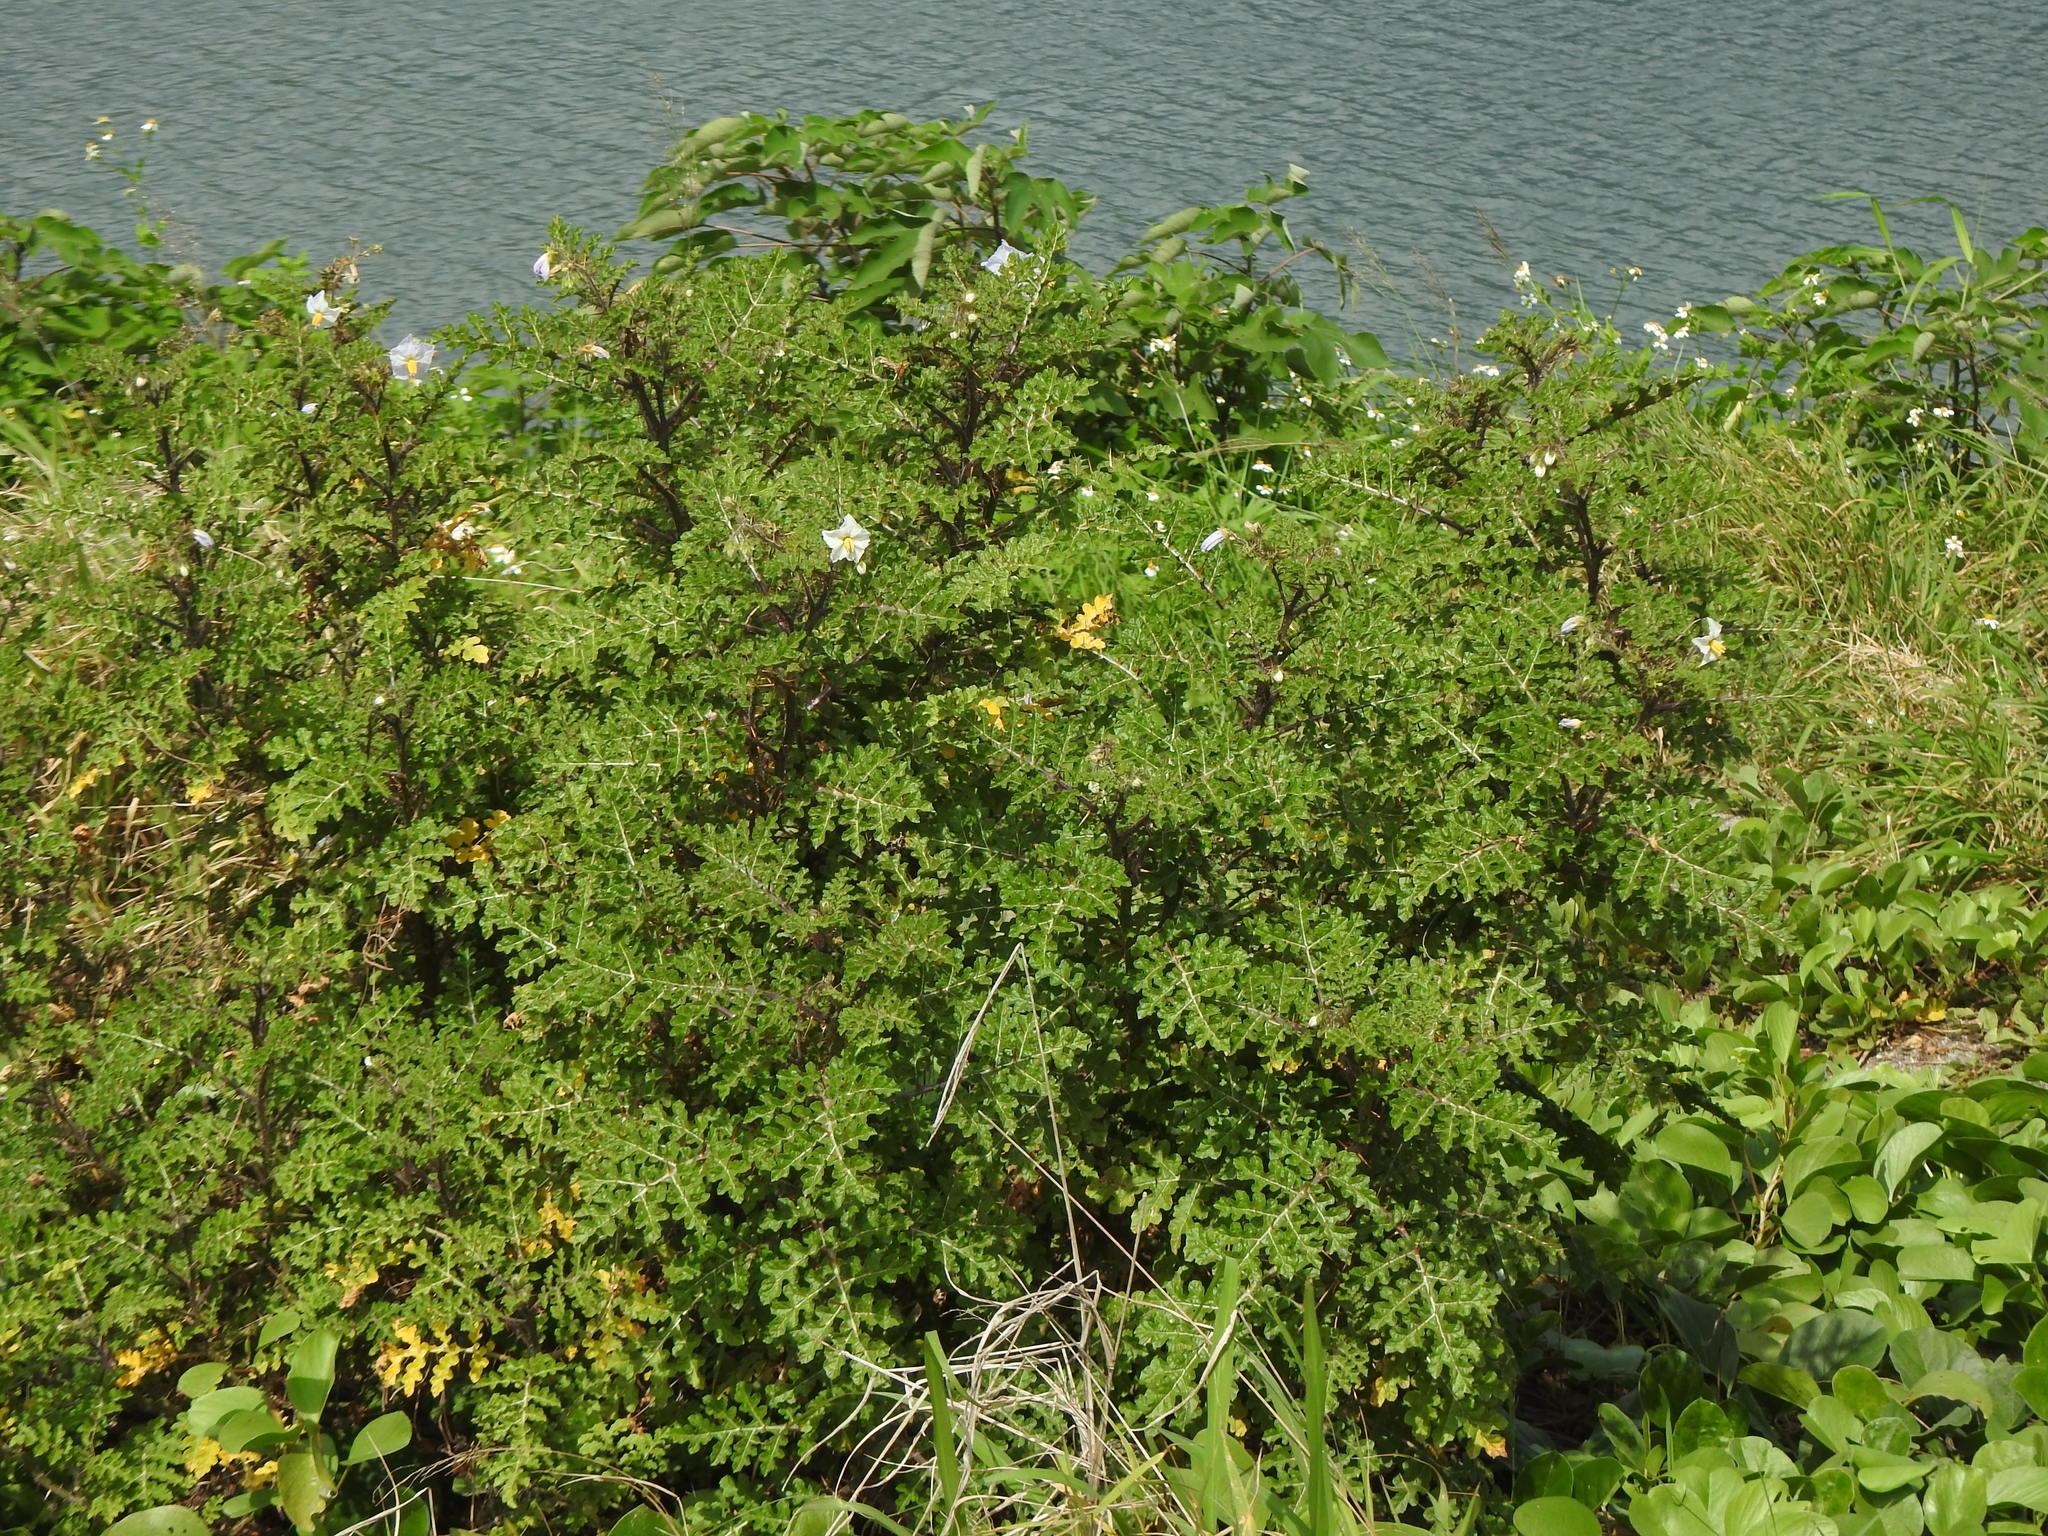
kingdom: Plantae
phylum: Tracheophyta
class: Magnoliopsida
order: Solanales
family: Solanaceae
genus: Solanum
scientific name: Solanum sisymbriifolium
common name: Red buffalo-bur
